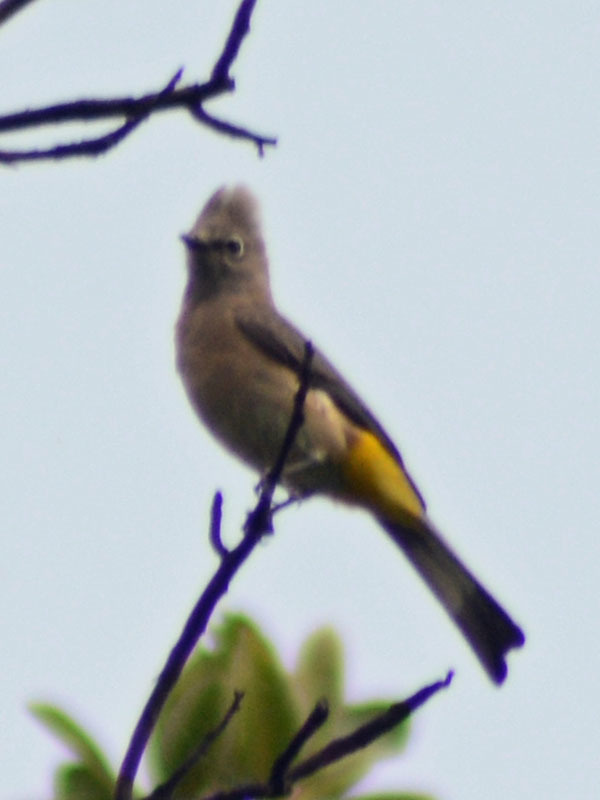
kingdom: Animalia
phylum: Chordata
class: Aves
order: Passeriformes
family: Ptilogonatidae
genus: Ptilogonys
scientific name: Ptilogonys cinereus
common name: Gray silky-flycatcher
